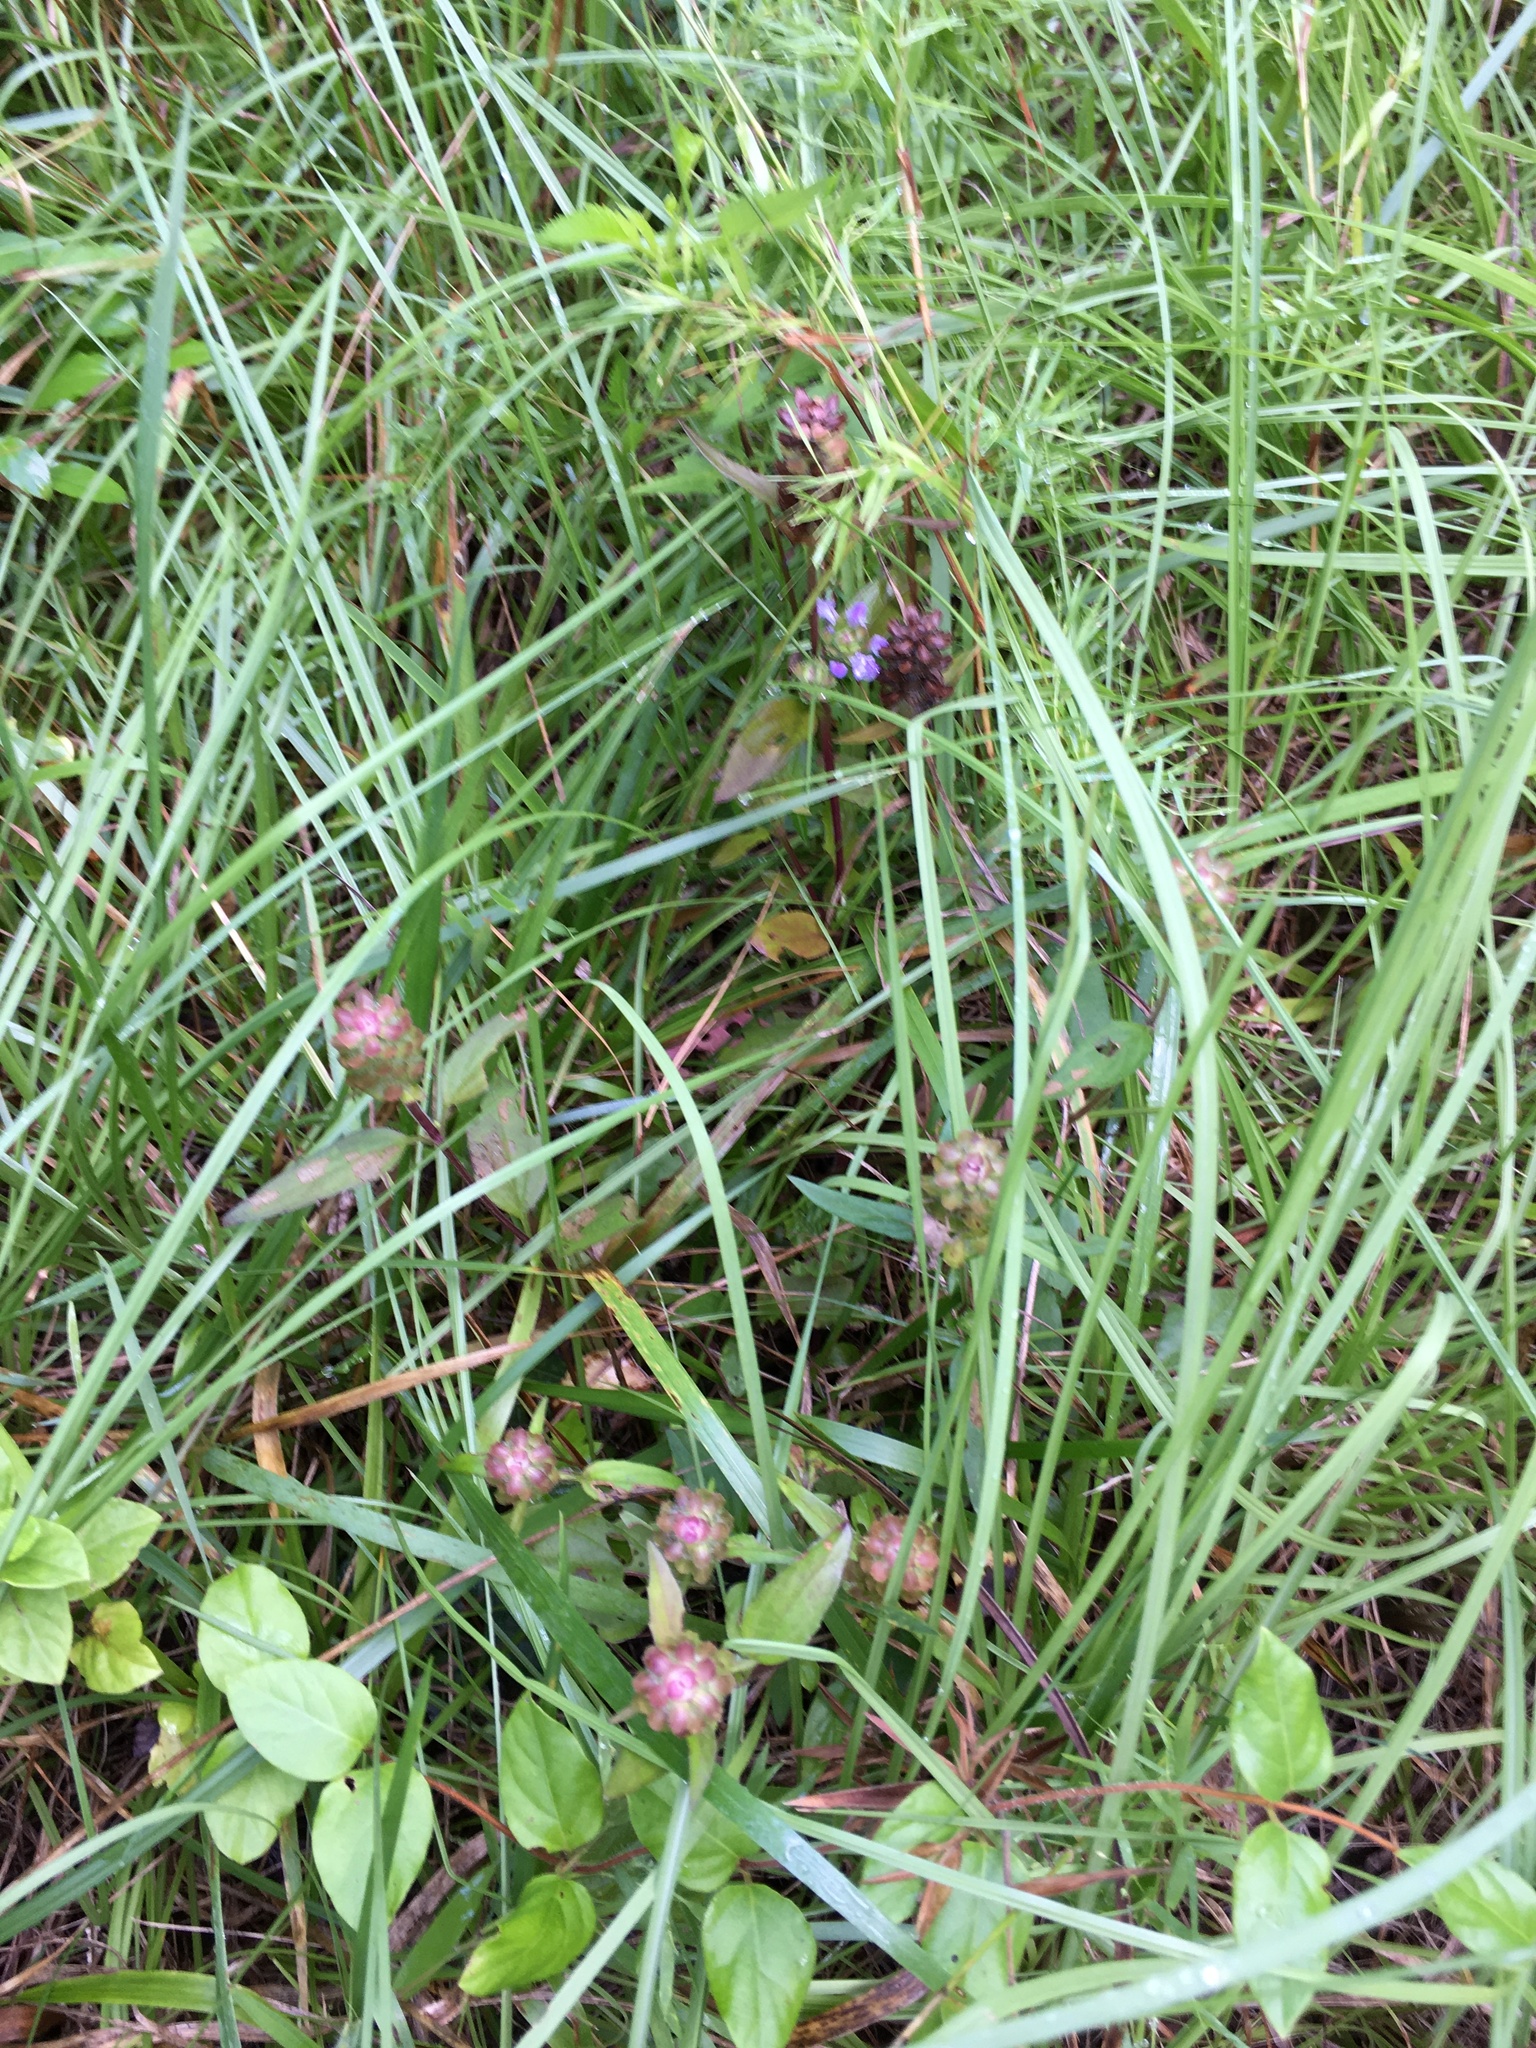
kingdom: Plantae
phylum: Tracheophyta
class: Magnoliopsida
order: Lamiales
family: Lamiaceae
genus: Prunella
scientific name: Prunella vulgaris
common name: Heal-all
